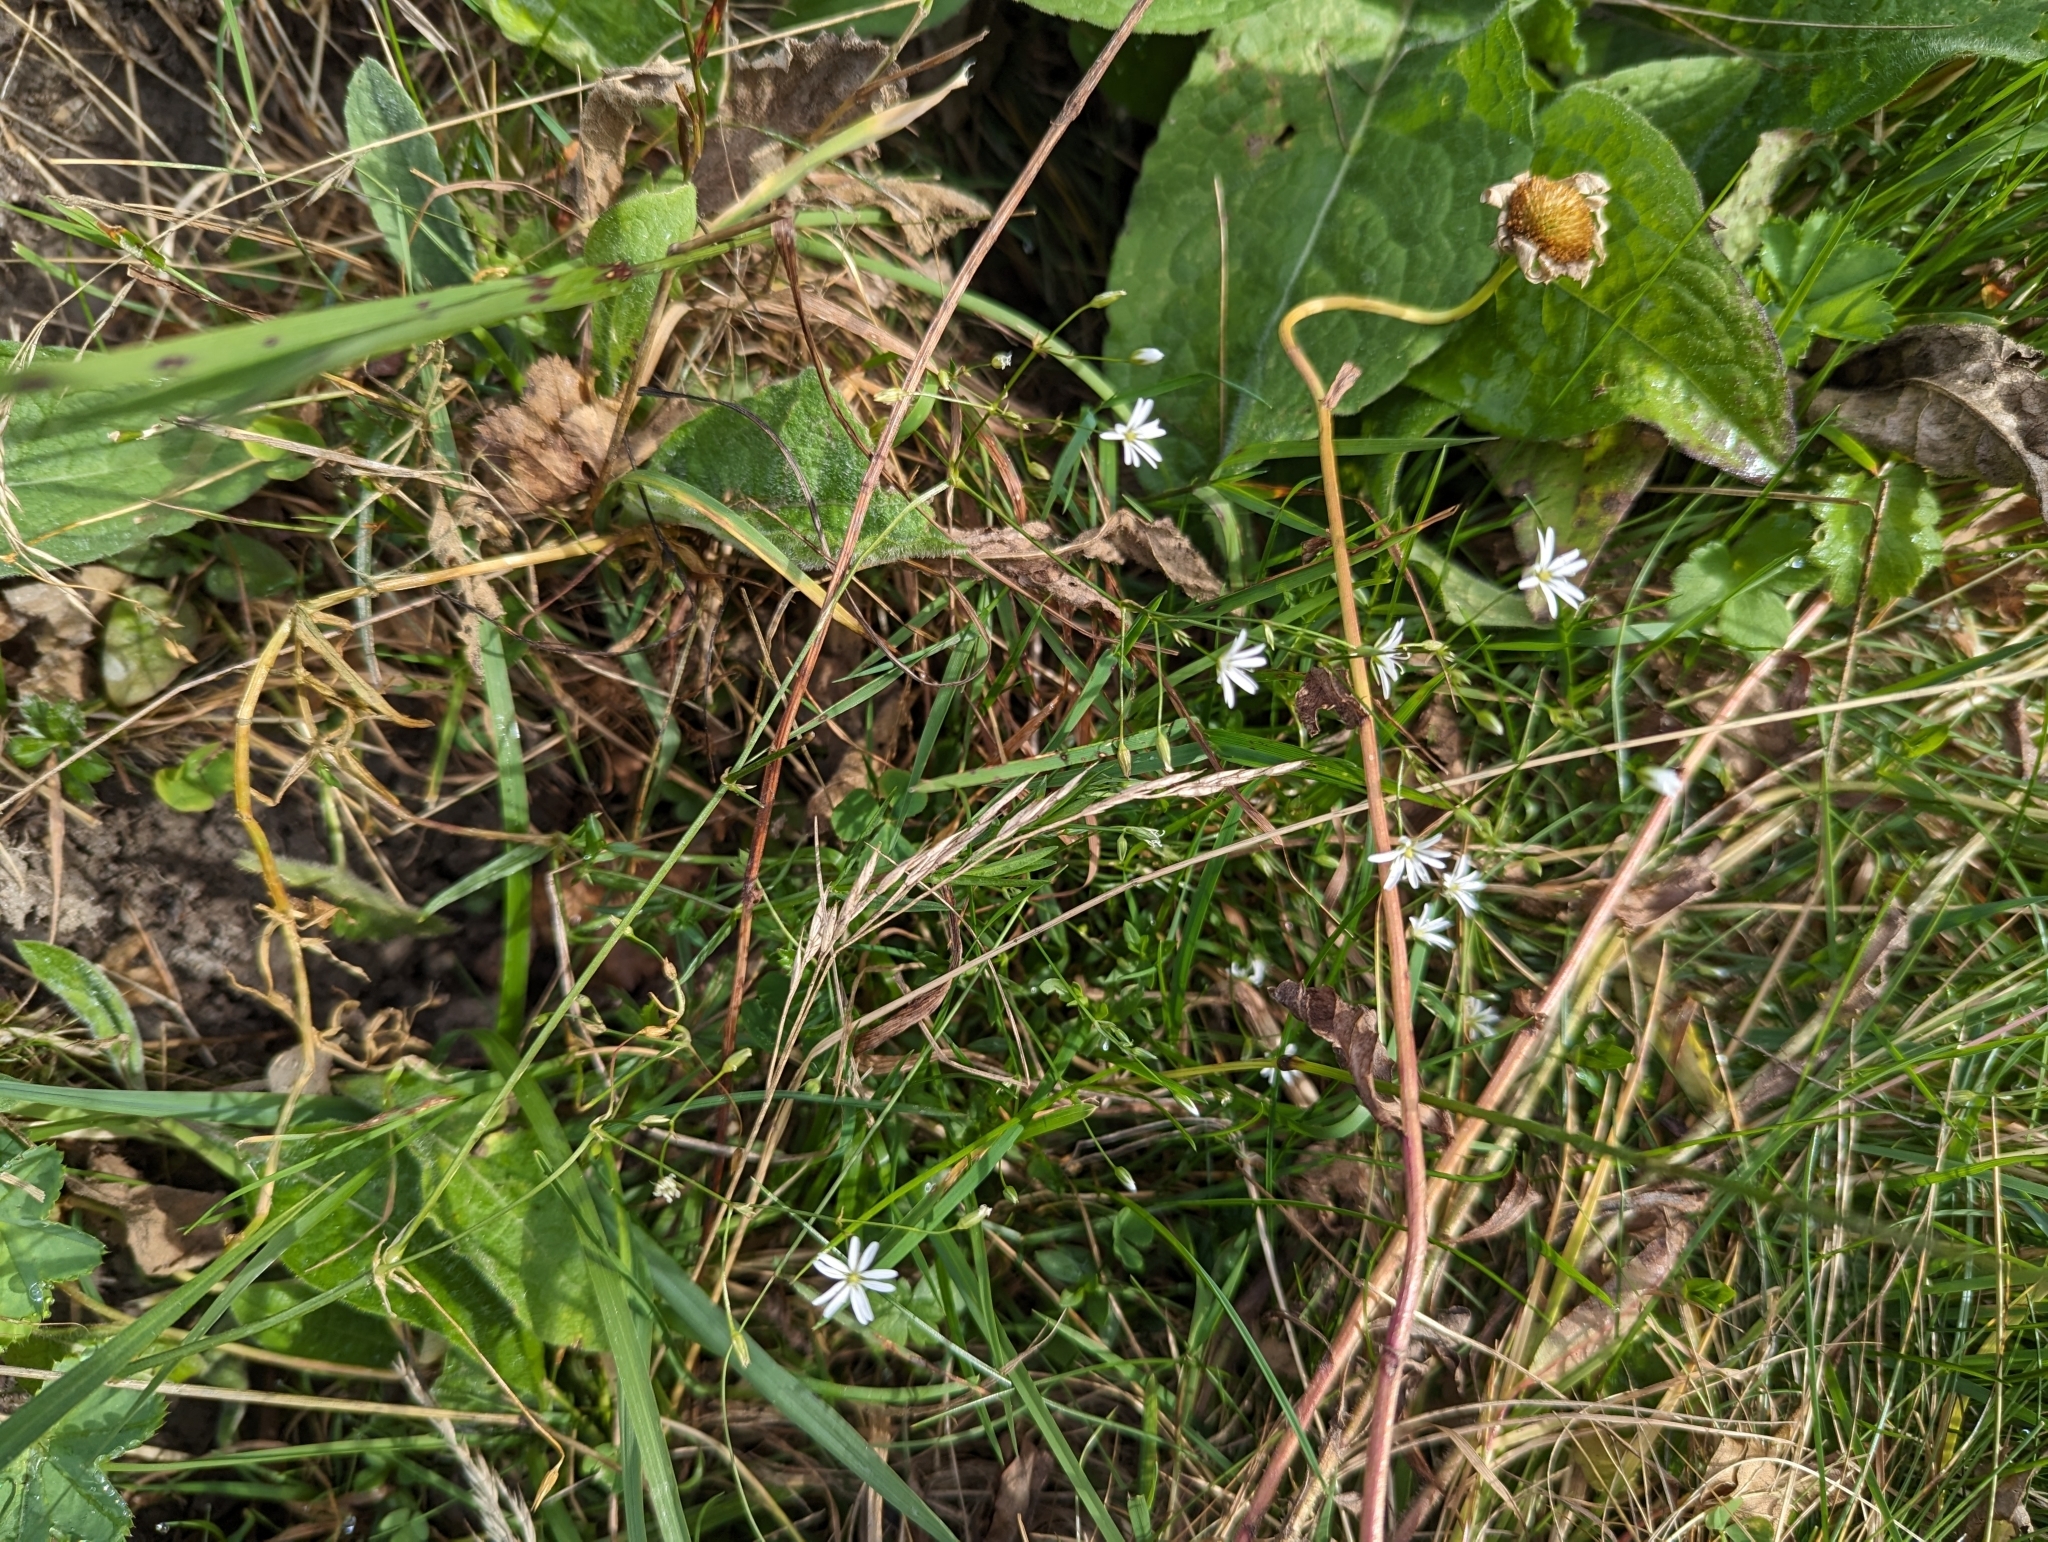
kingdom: Plantae
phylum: Tracheophyta
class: Magnoliopsida
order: Caryophyllales
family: Caryophyllaceae
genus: Stellaria
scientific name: Stellaria graminea
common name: Grass-like starwort
